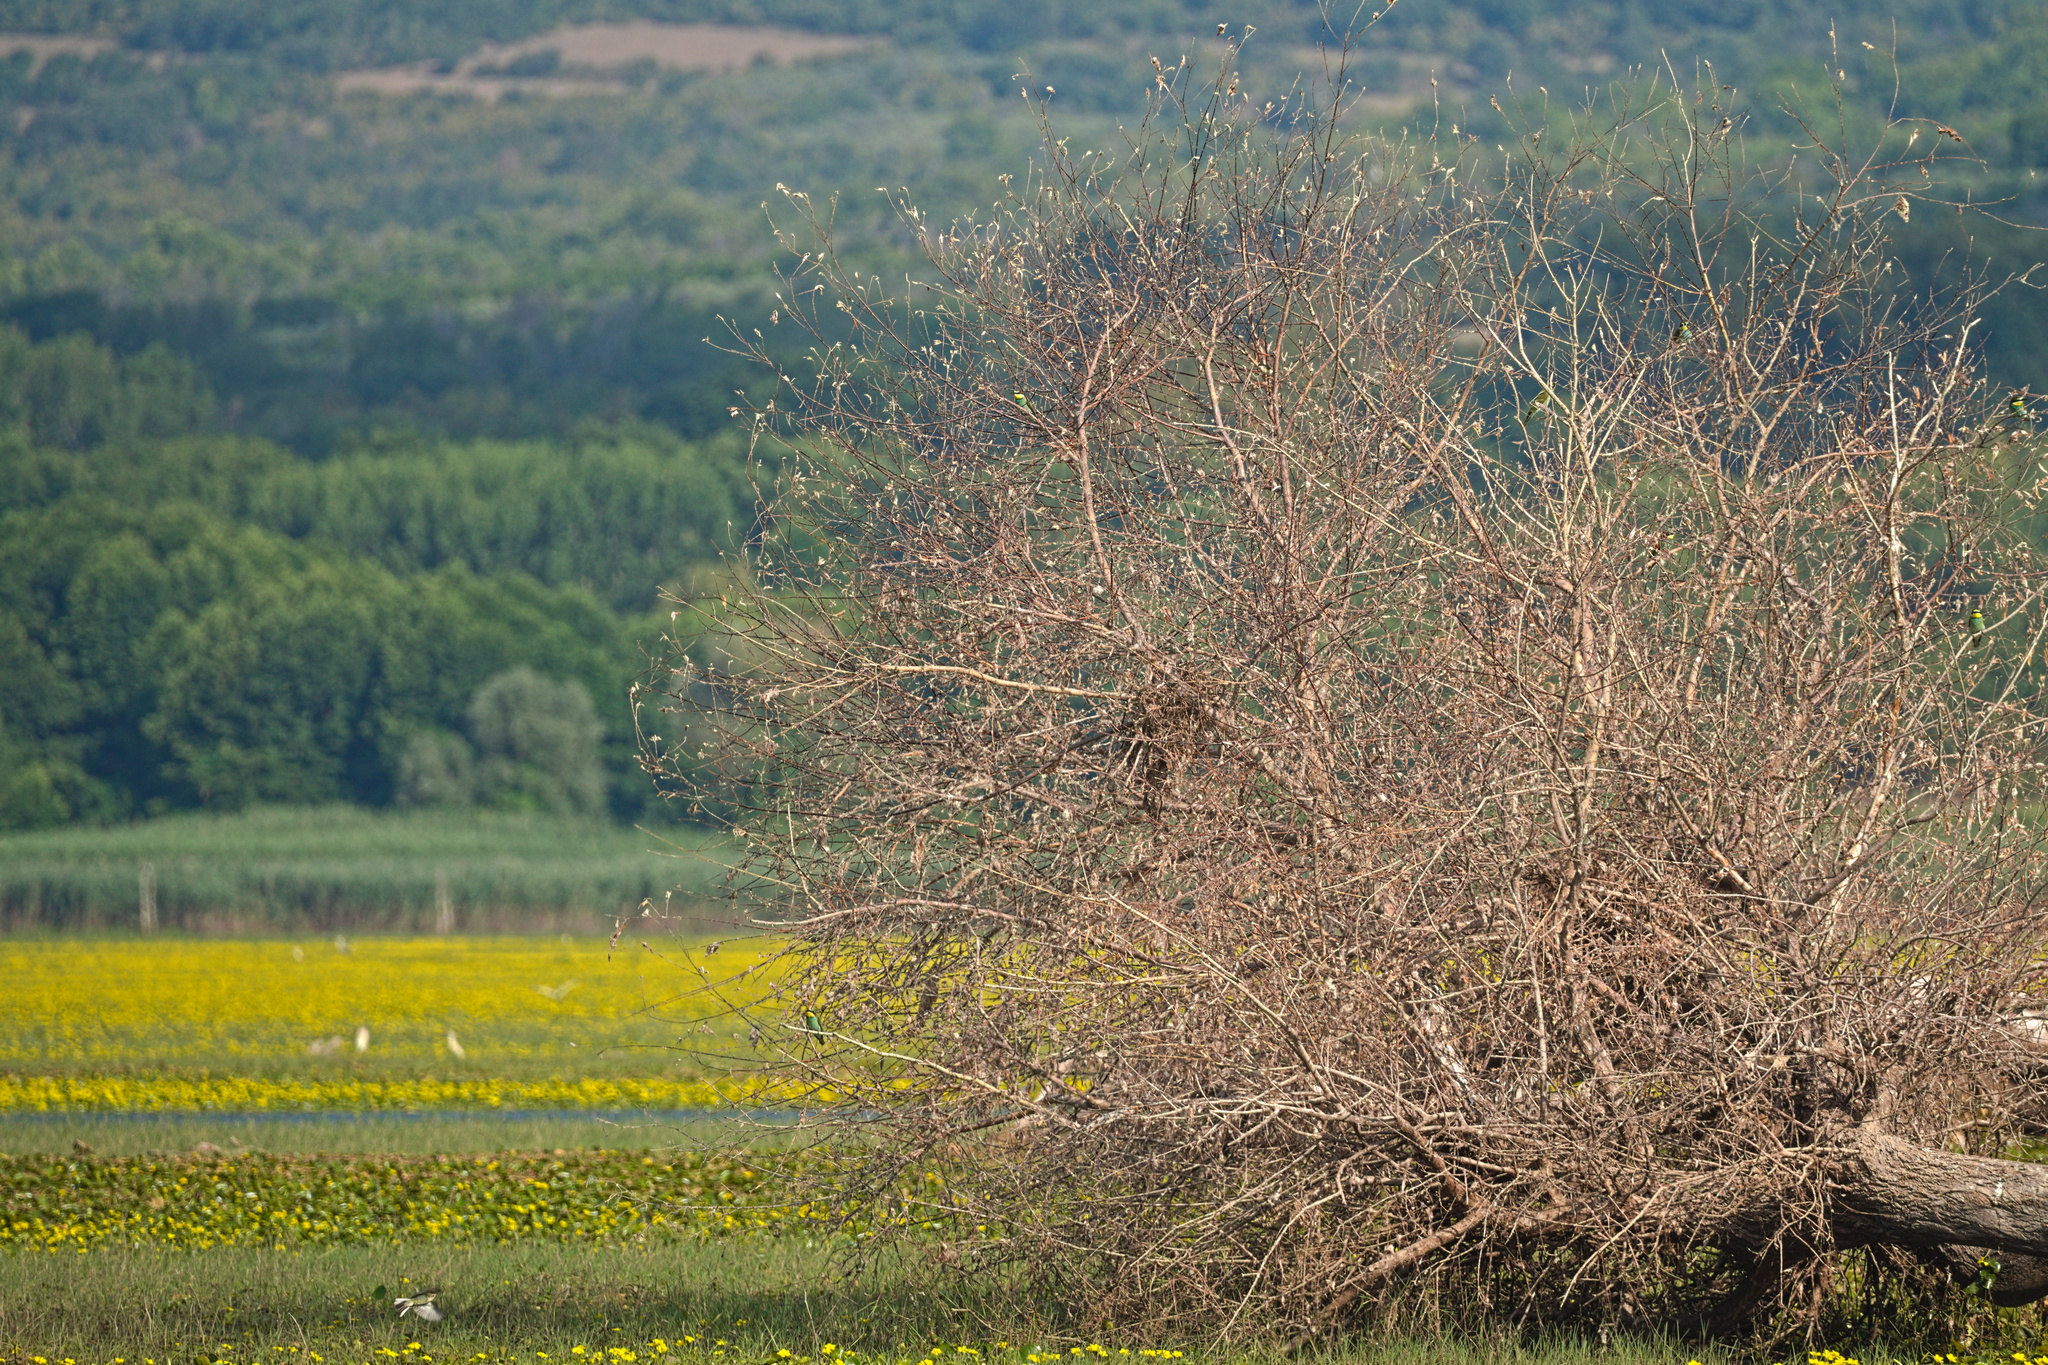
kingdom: Animalia
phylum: Chordata
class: Aves
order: Coraciiformes
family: Meropidae
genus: Merops
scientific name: Merops apiaster
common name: European bee-eater
